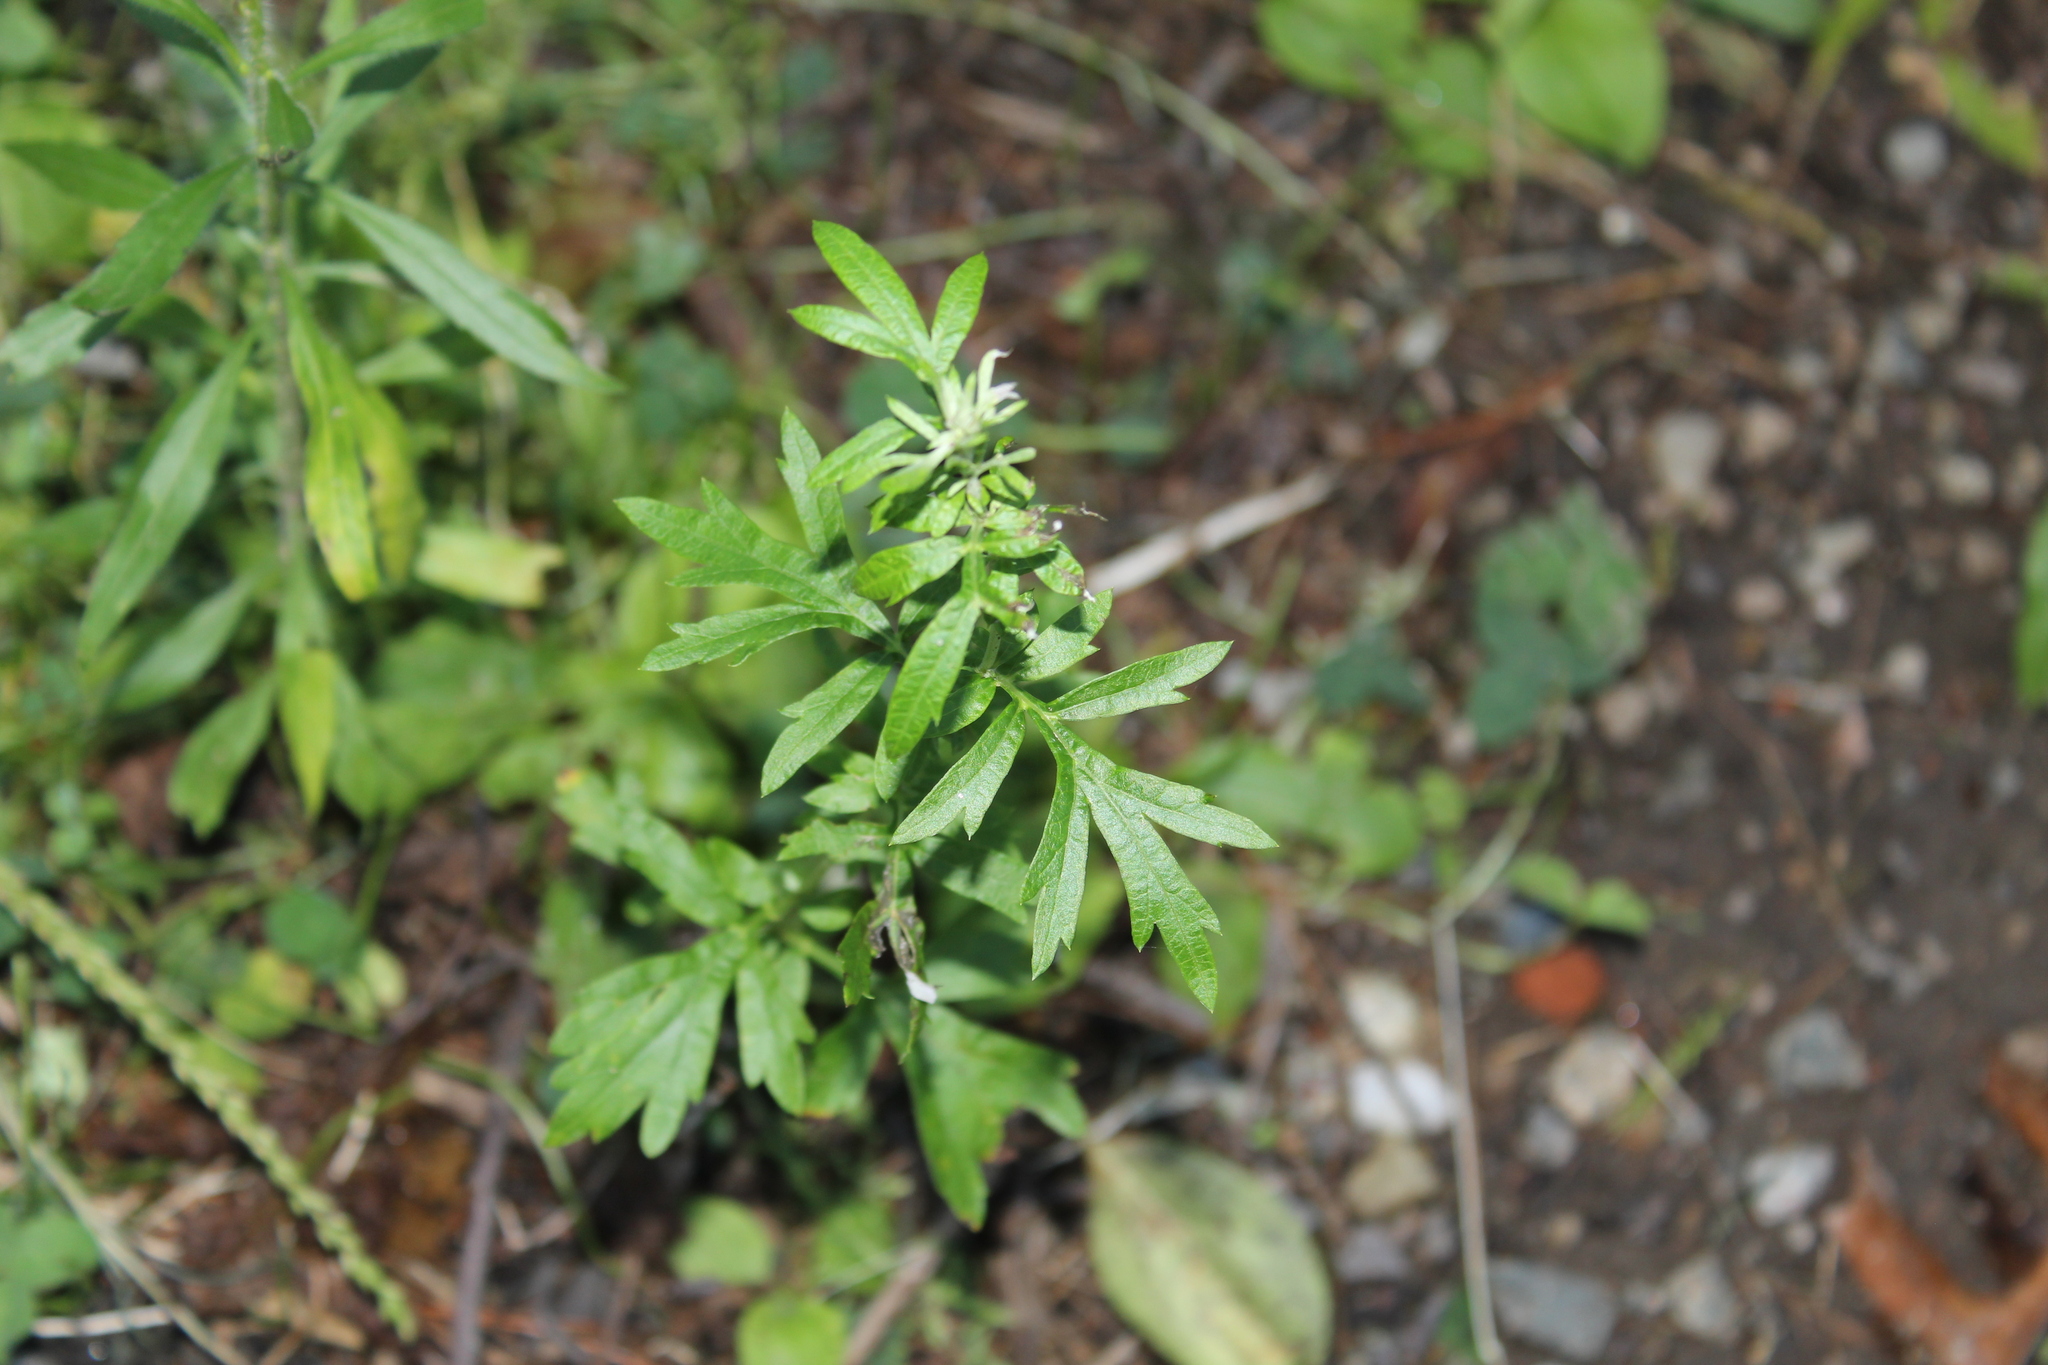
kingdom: Plantae
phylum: Tracheophyta
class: Magnoliopsida
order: Asterales
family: Asteraceae
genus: Artemisia
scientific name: Artemisia vulgaris
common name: Mugwort
